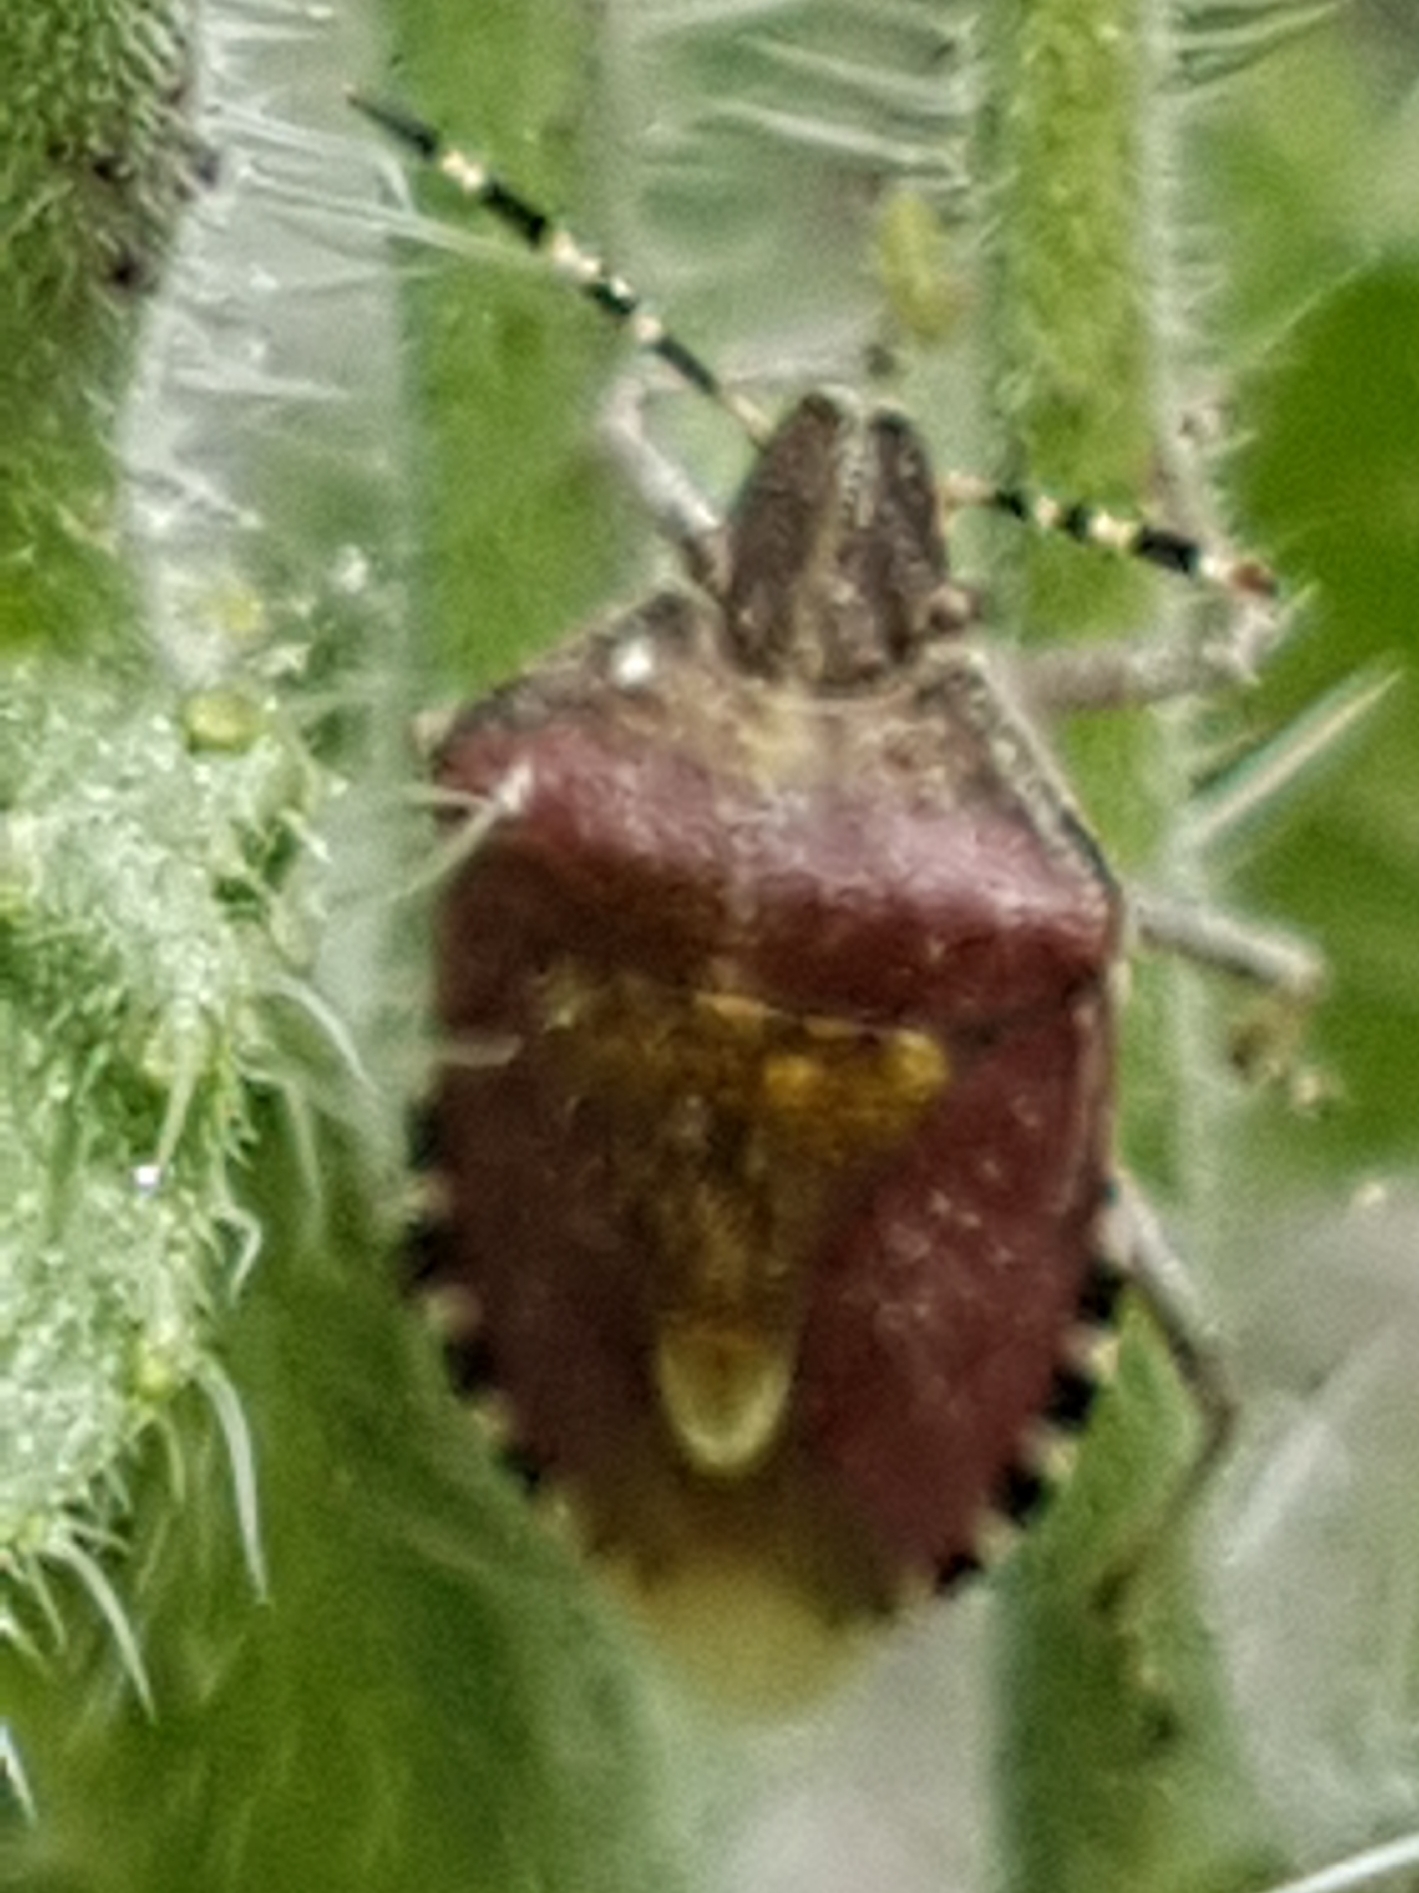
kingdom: Animalia
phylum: Arthropoda
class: Insecta
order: Hemiptera
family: Pentatomidae
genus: Dolycoris
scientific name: Dolycoris baccarum
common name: Sloe bug
